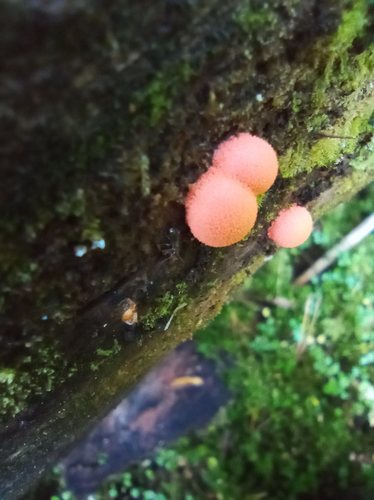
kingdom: Protozoa
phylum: Mycetozoa
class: Myxomycetes
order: Cribrariales
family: Tubiferaceae
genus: Lycogala
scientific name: Lycogala epidendrum
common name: Wolf's milk
